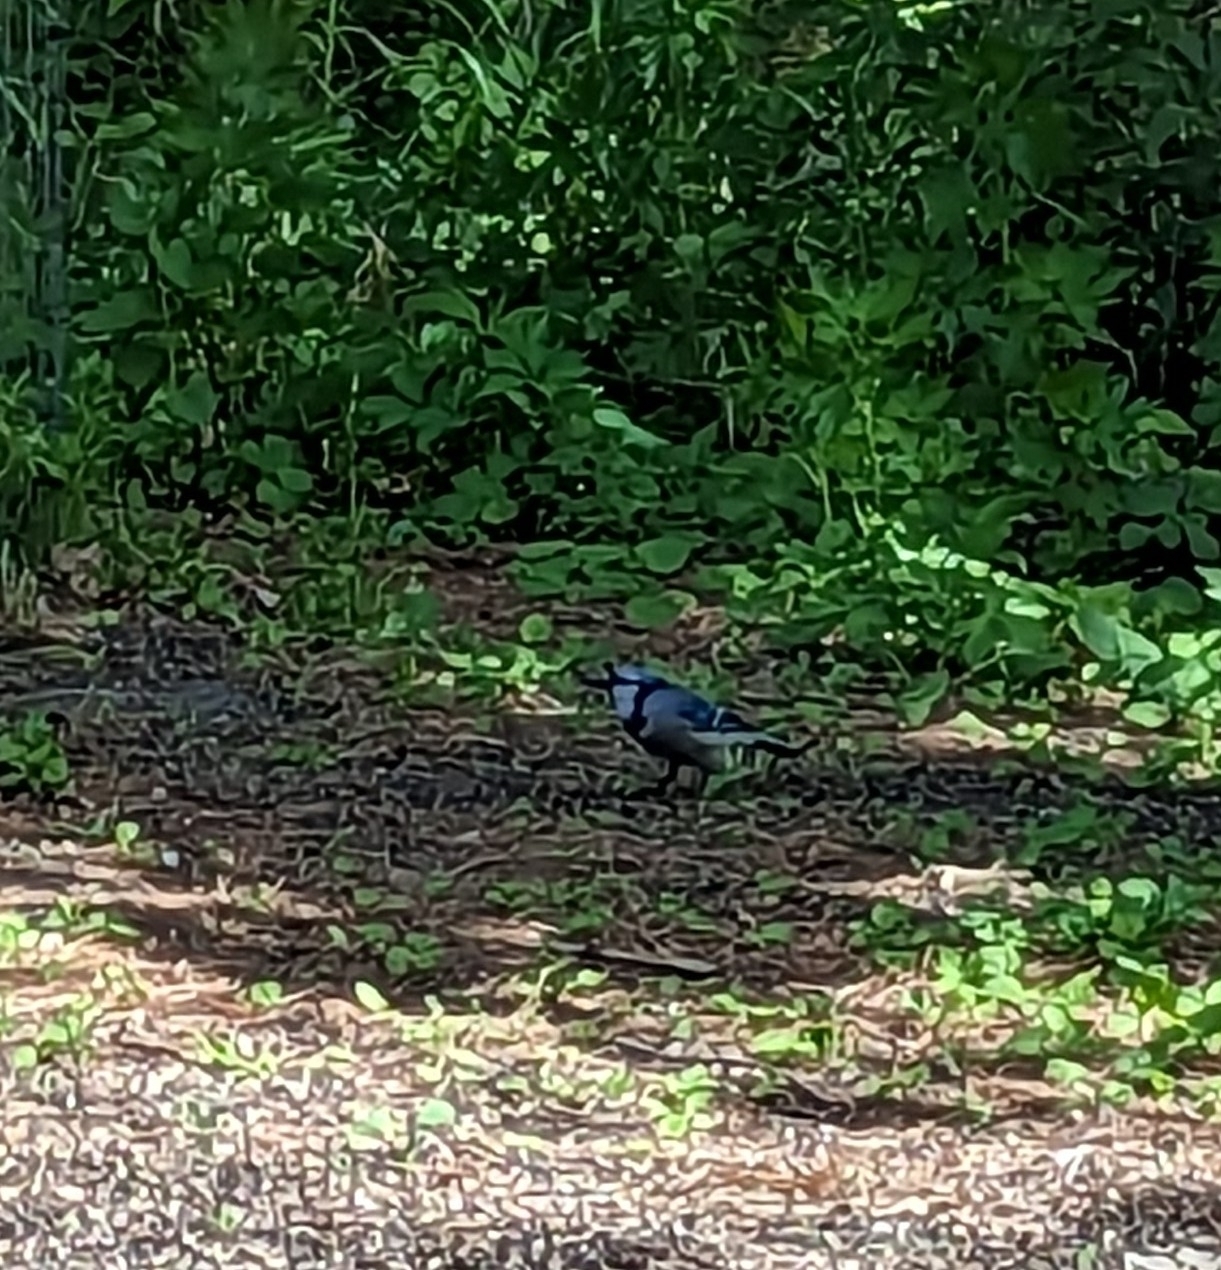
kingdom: Animalia
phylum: Chordata
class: Aves
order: Passeriformes
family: Corvidae
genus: Cyanocitta
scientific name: Cyanocitta cristata
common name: Blue jay
